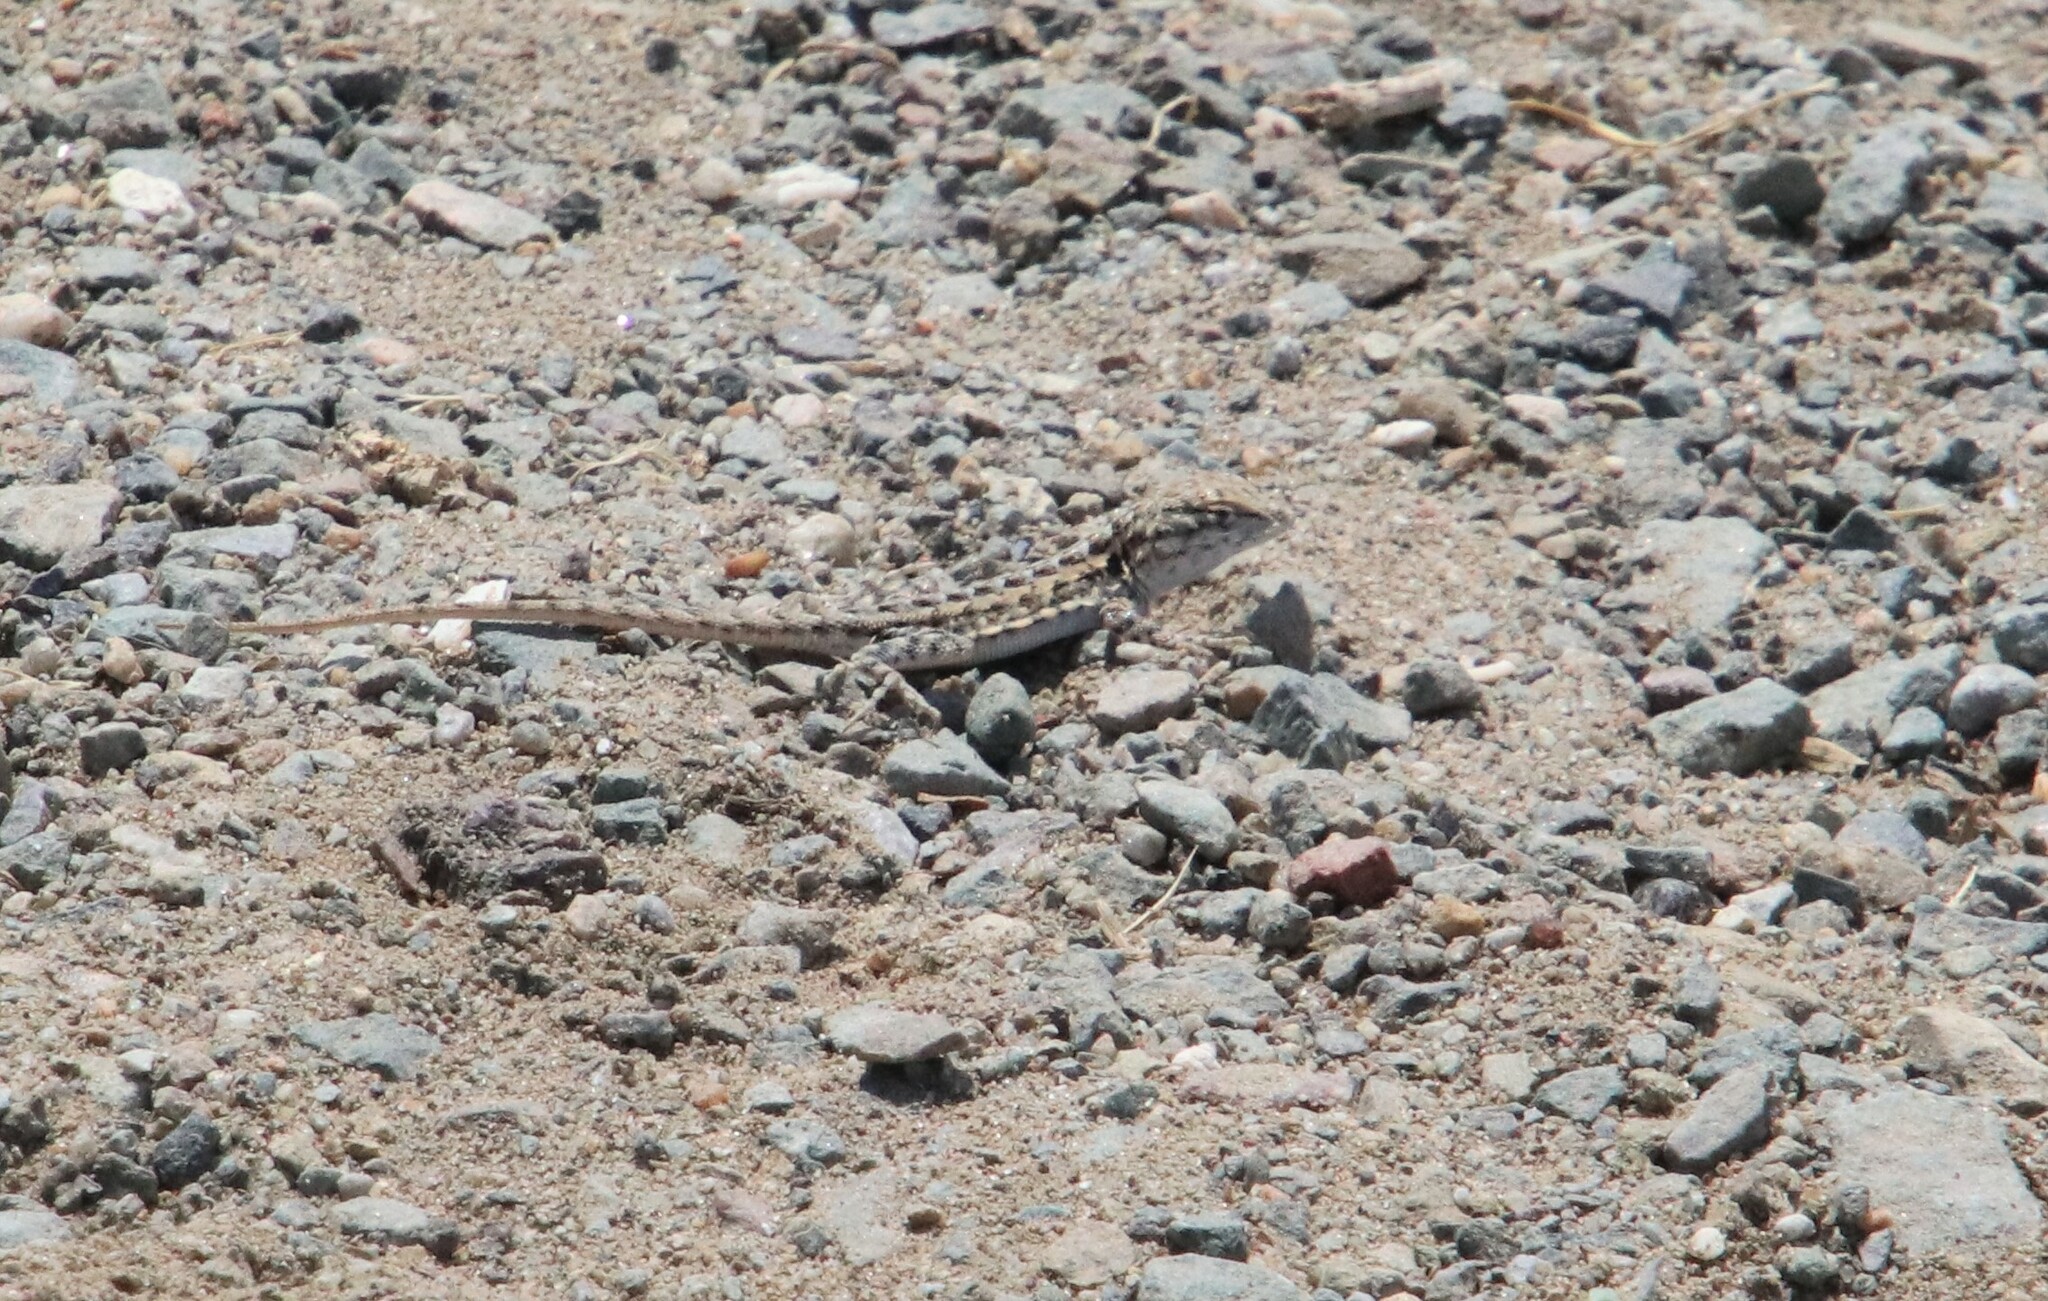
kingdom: Animalia
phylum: Chordata
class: Squamata
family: Phrynosomatidae
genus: Uta
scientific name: Uta stansburiana
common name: Side-blotched lizard
